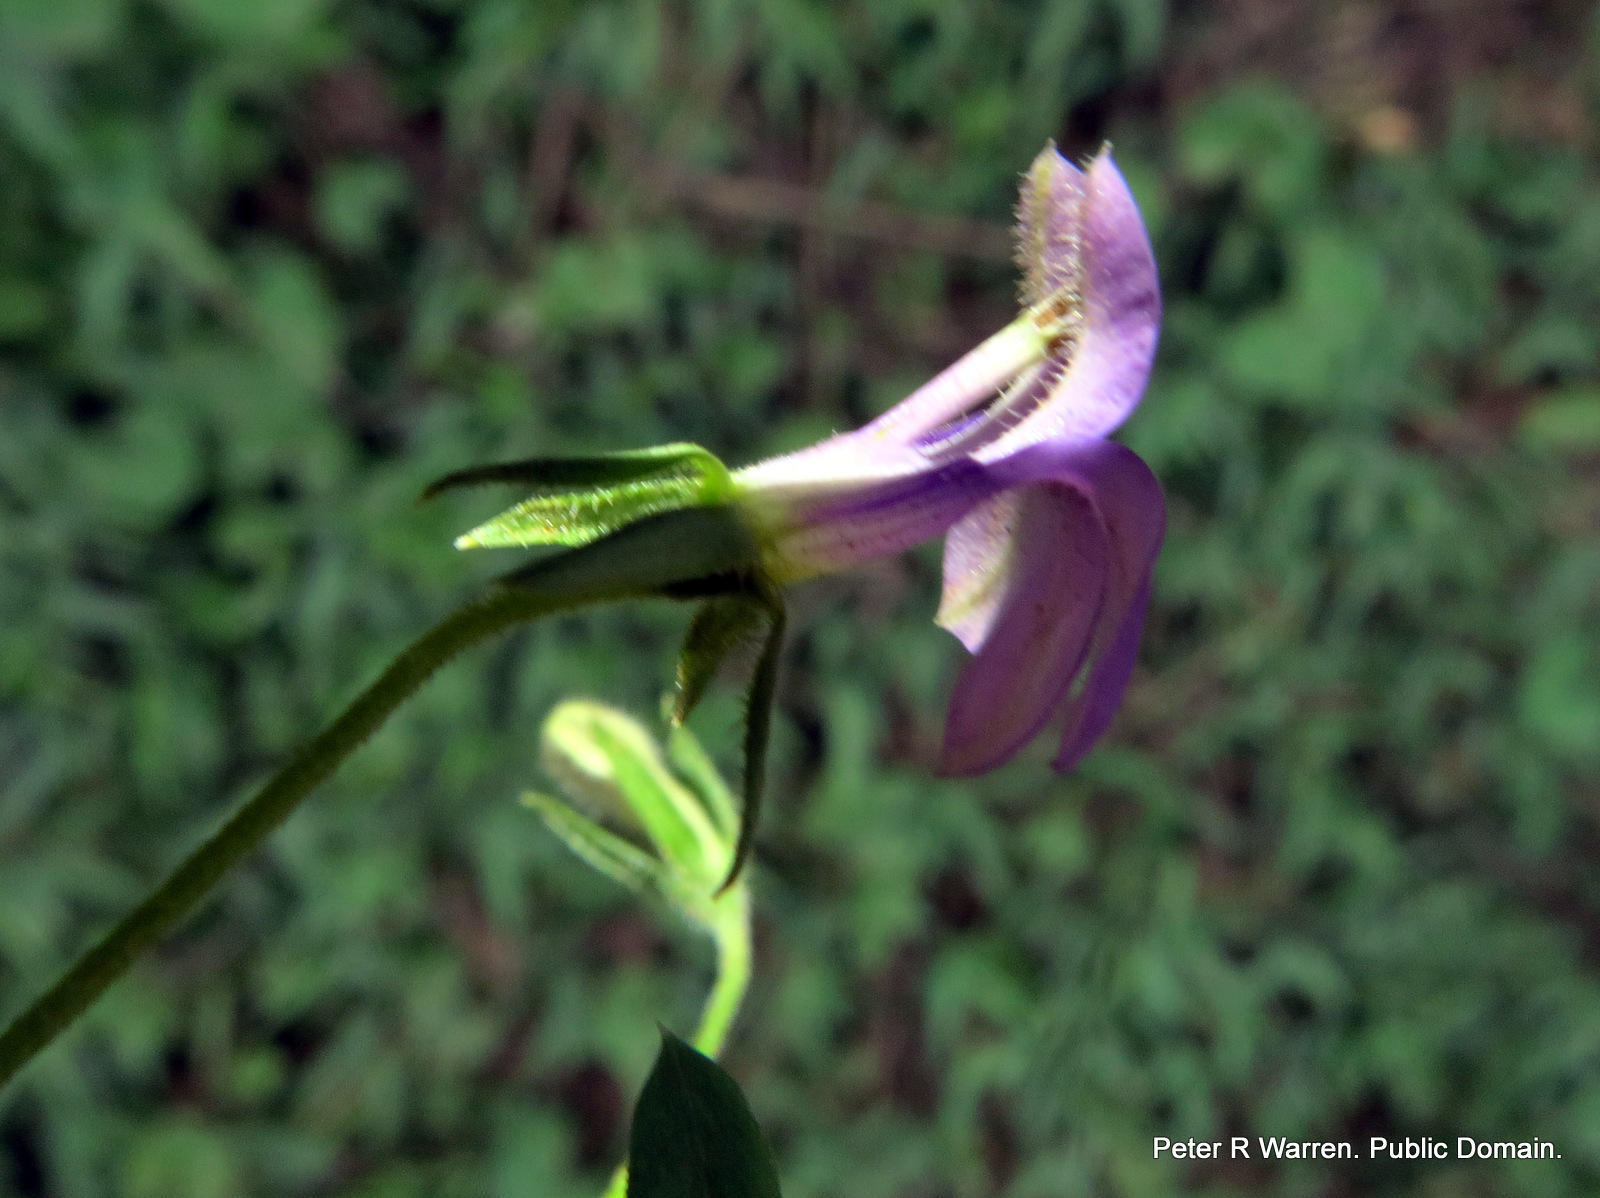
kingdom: Plantae
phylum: Tracheophyta
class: Magnoliopsida
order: Asterales
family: Campanulaceae
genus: Monopsis
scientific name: Monopsis stellarioides
